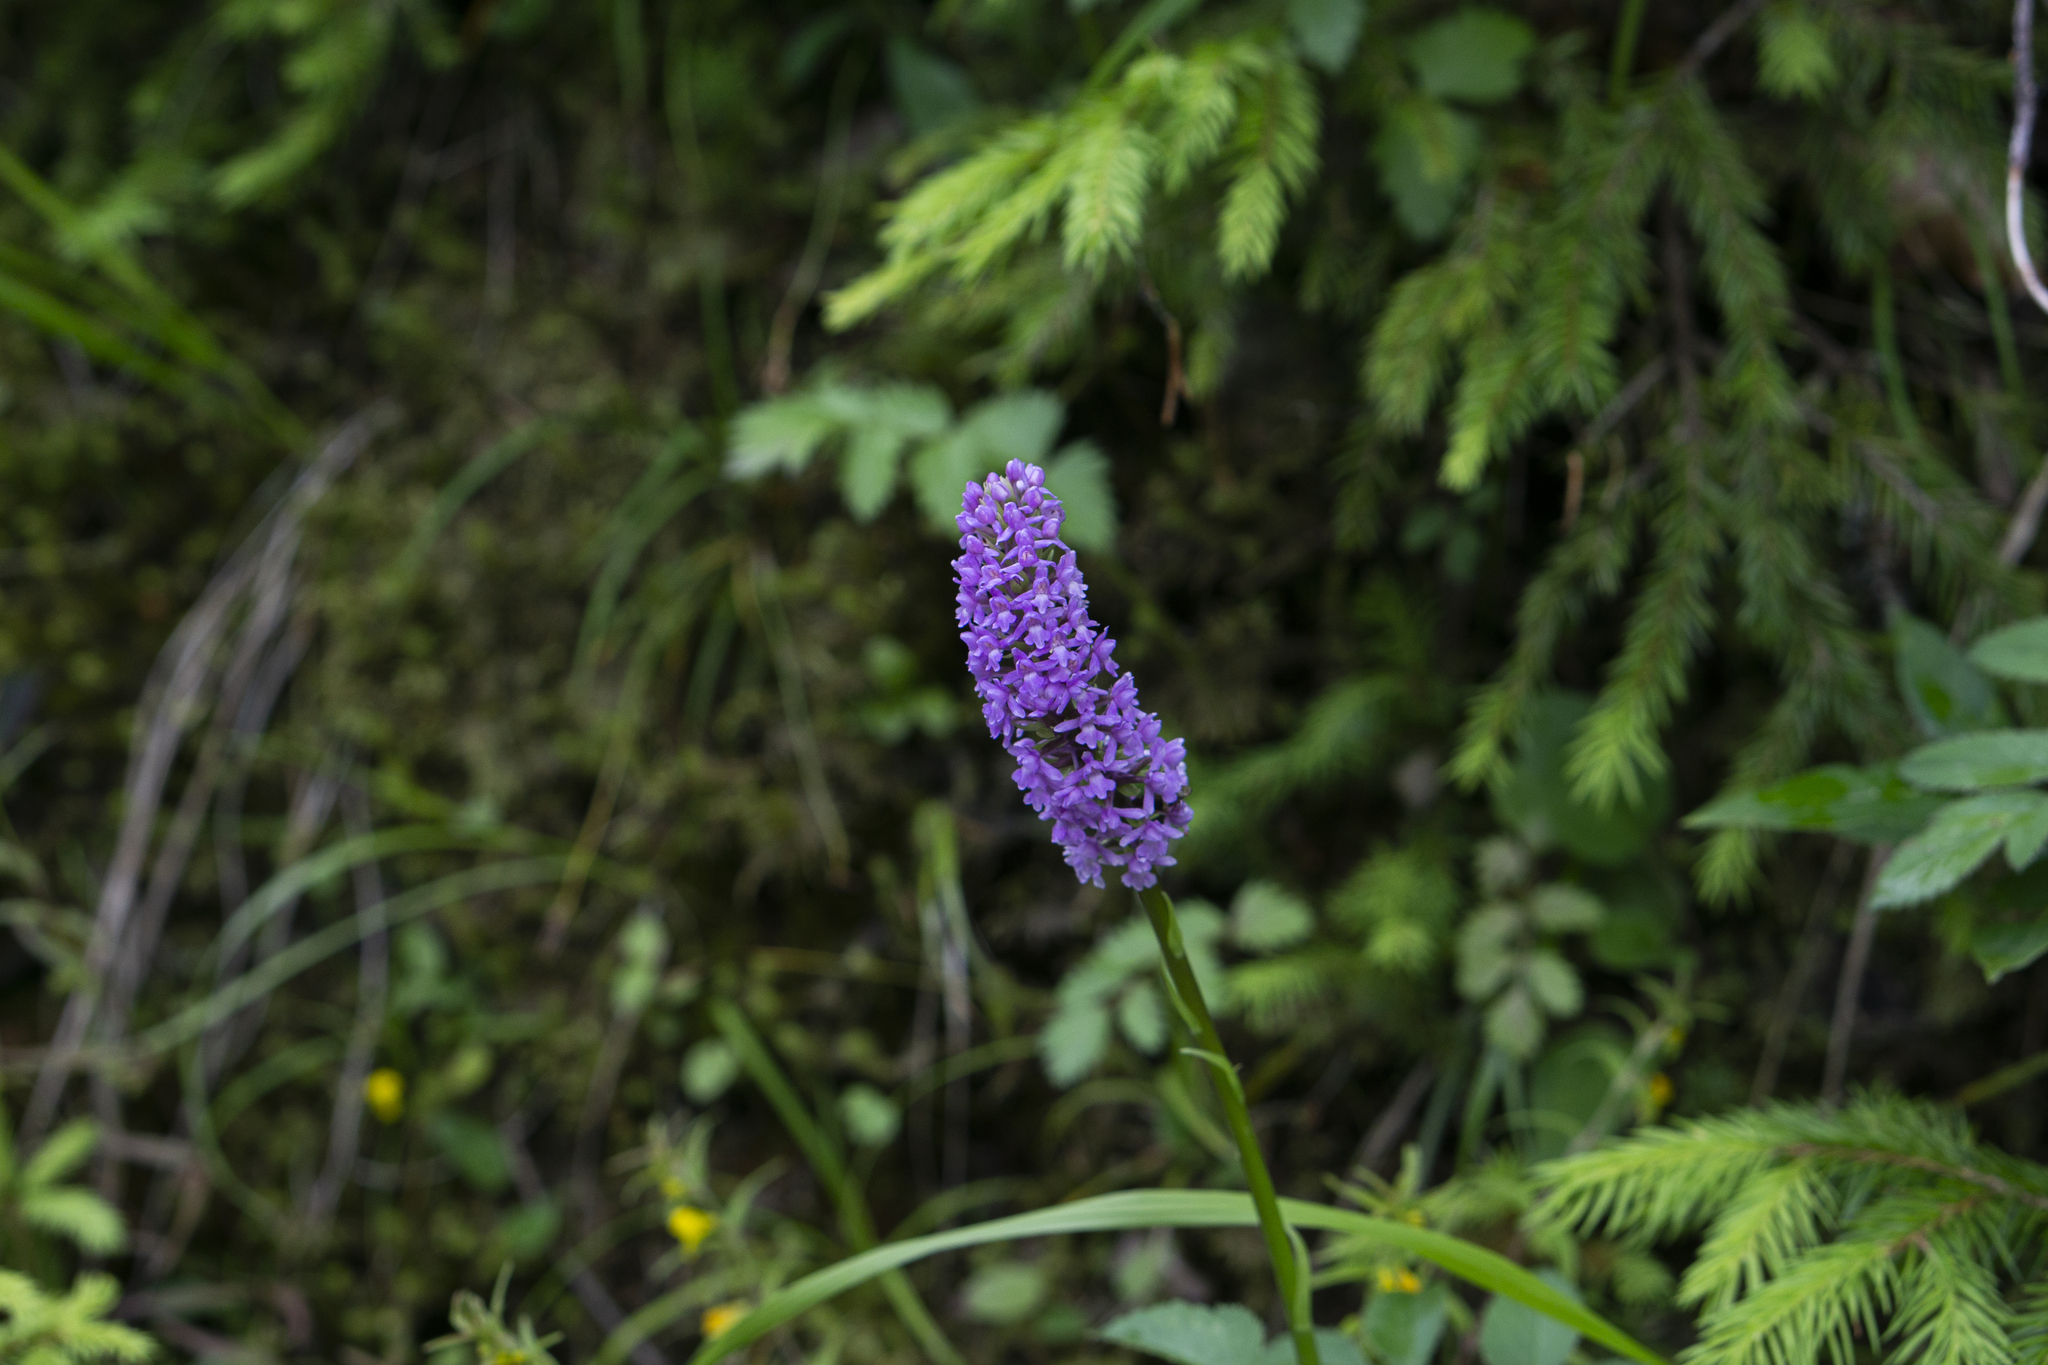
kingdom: Plantae
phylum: Tracheophyta
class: Liliopsida
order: Asparagales
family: Orchidaceae
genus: Gymnadenia
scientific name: Gymnadenia densiflora
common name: Marsh fragrant-orchid
